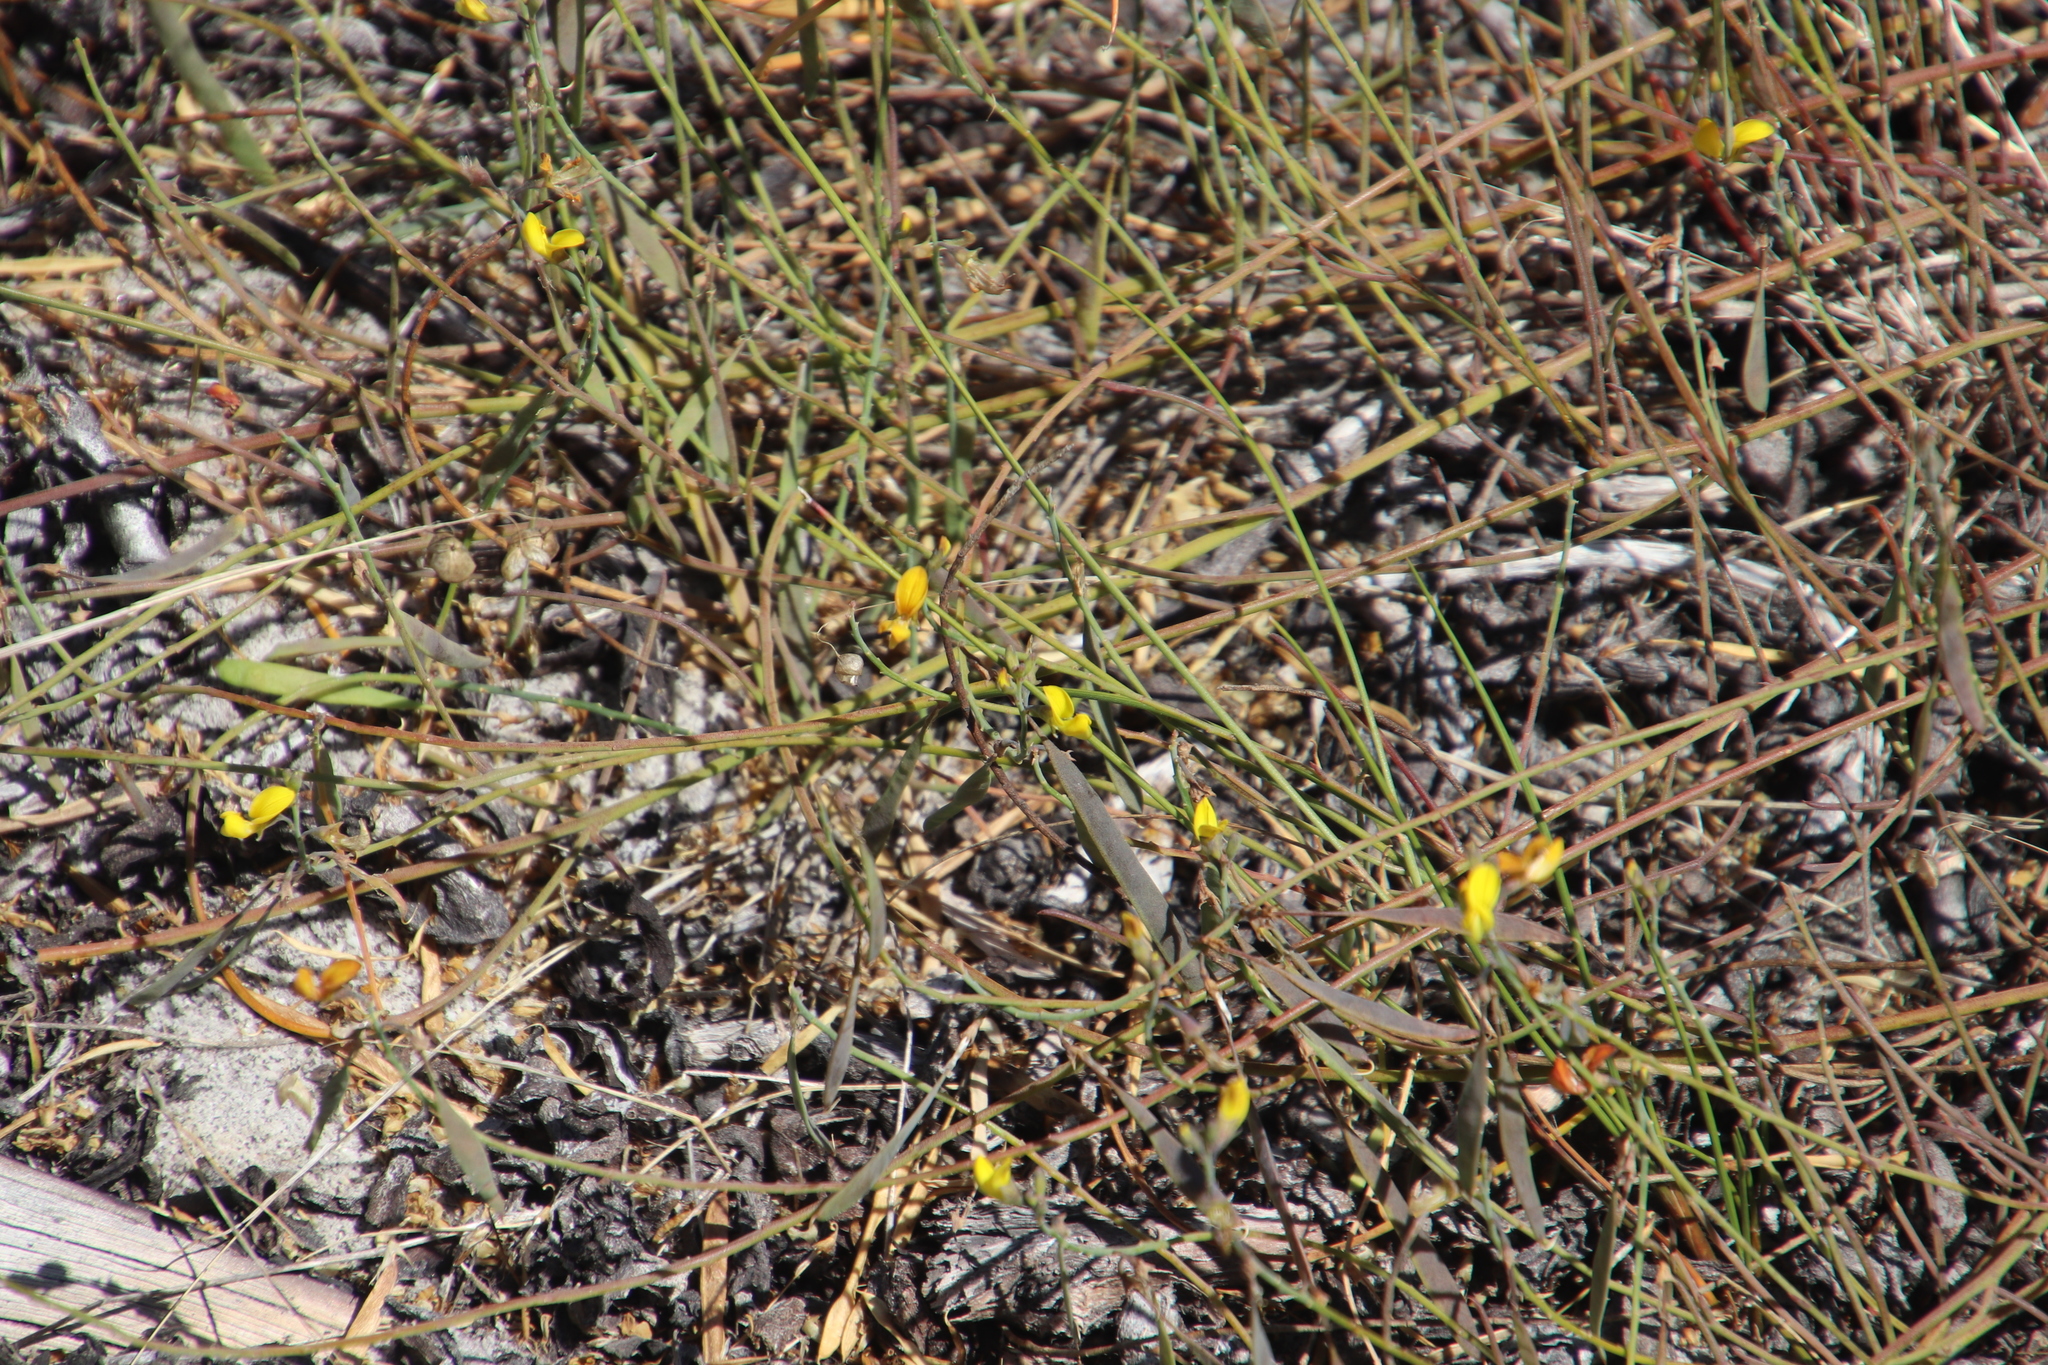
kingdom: Plantae
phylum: Tracheophyta
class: Magnoliopsida
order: Fabales
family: Fabaceae
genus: Lebeckia
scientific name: Lebeckia contaminata
